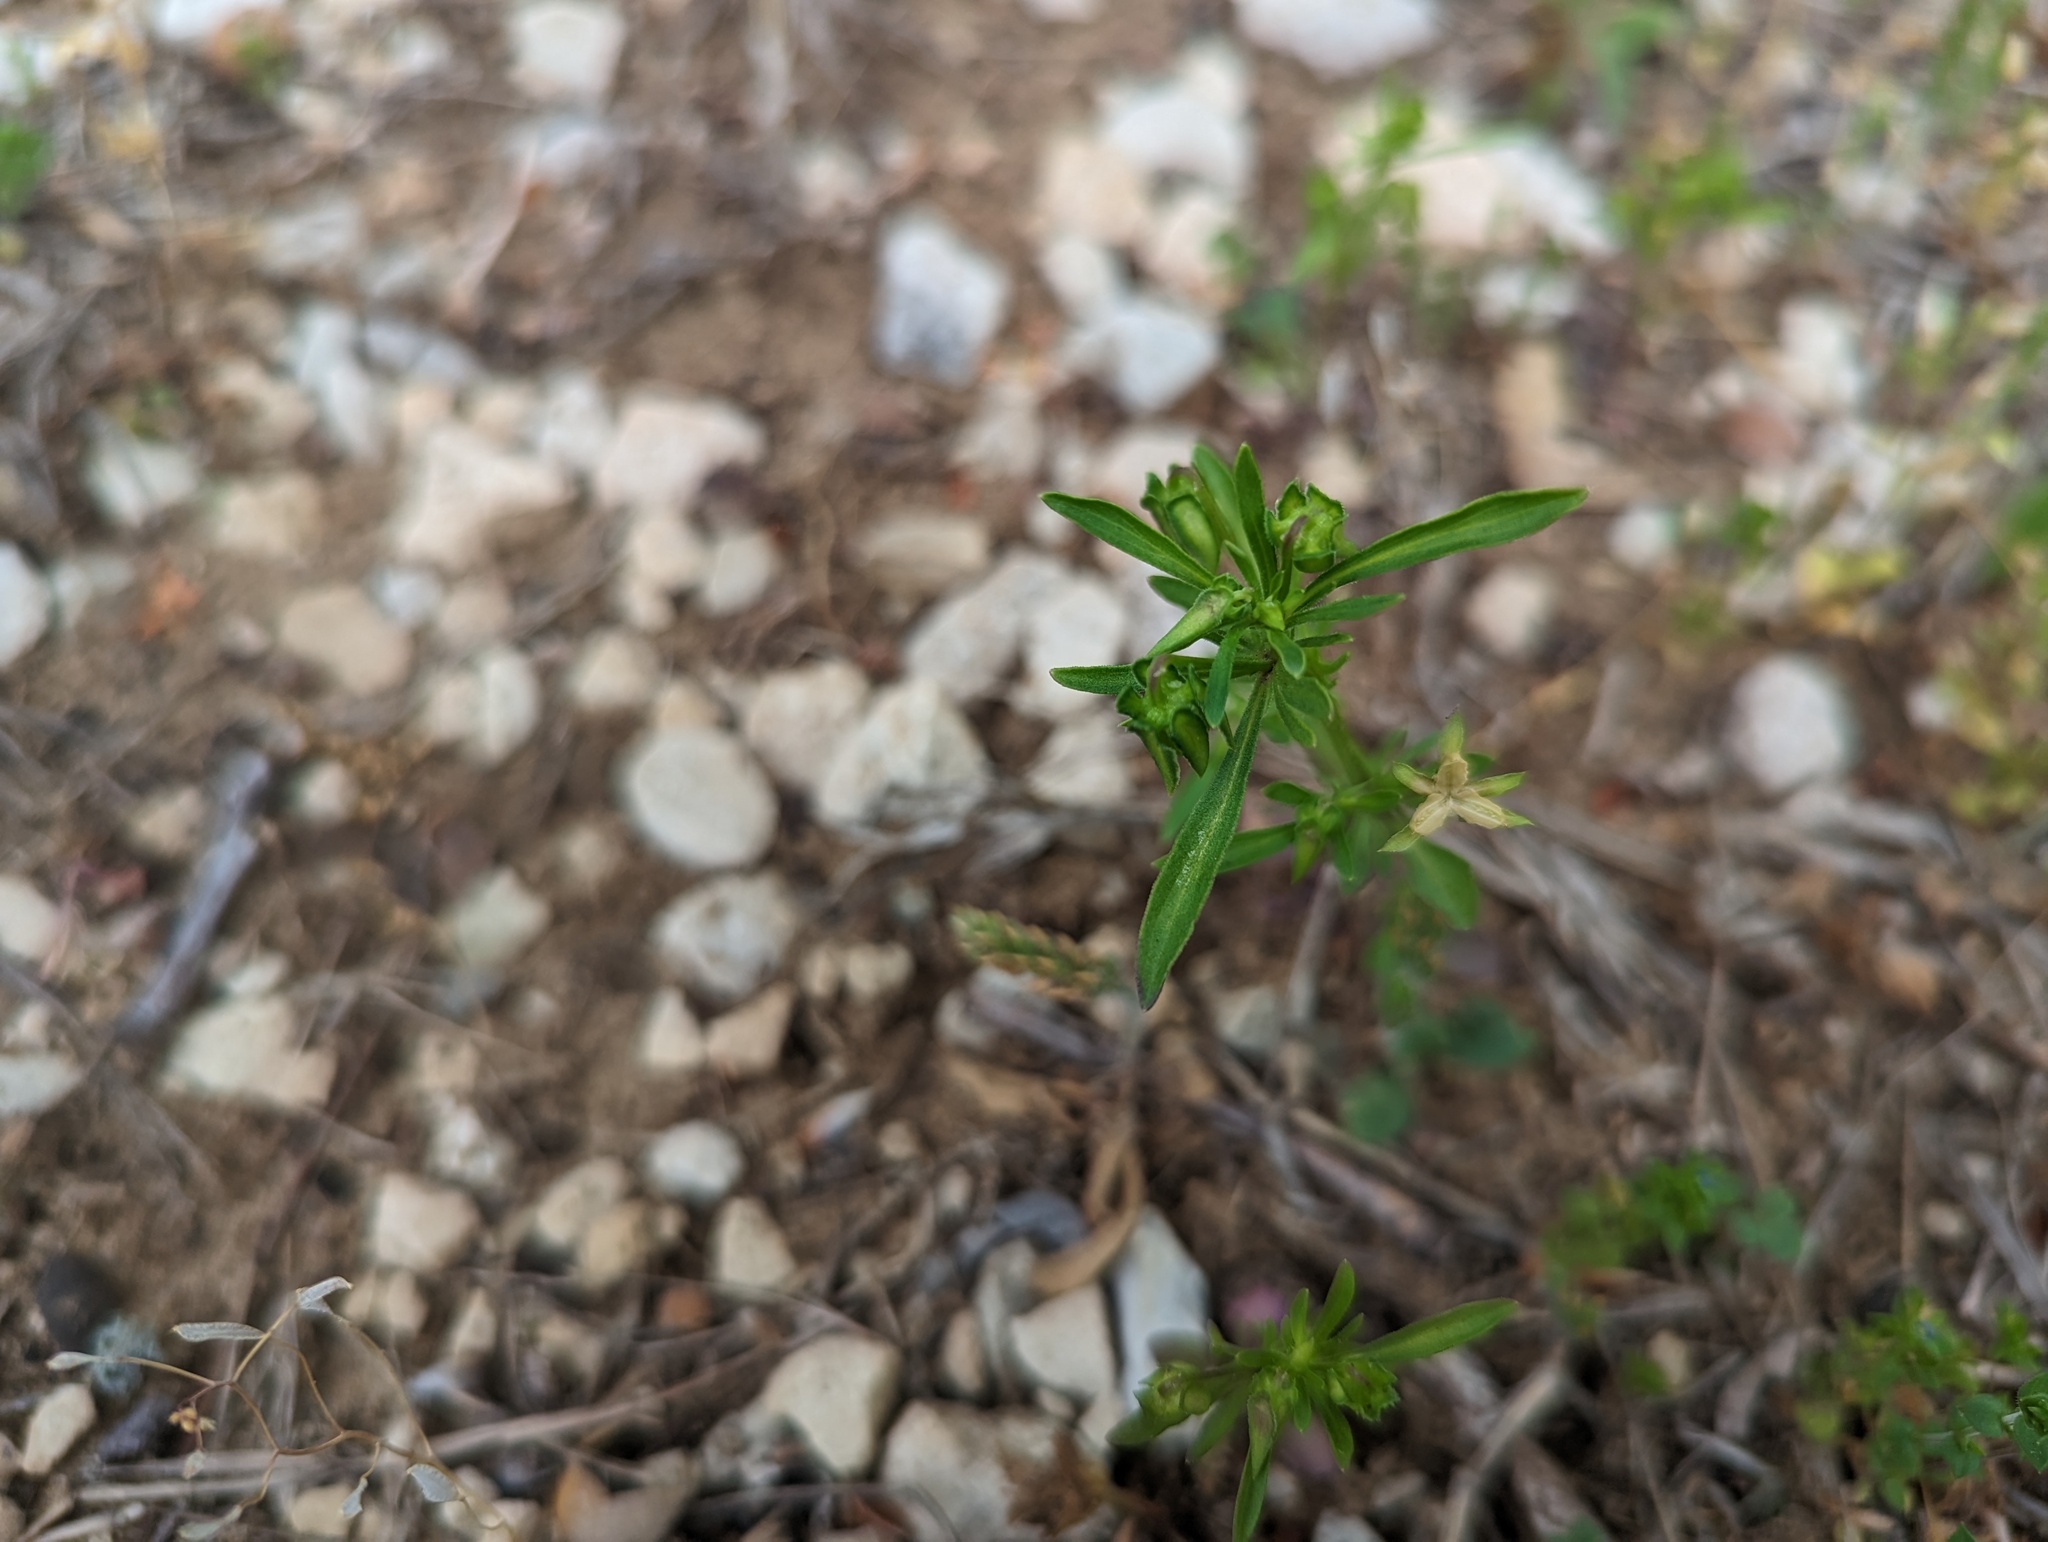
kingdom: Plantae
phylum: Tracheophyta
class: Magnoliopsida
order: Malpighiales
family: Violaceae
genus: Viola
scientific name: Viola rafinesquei
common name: American field pansy
